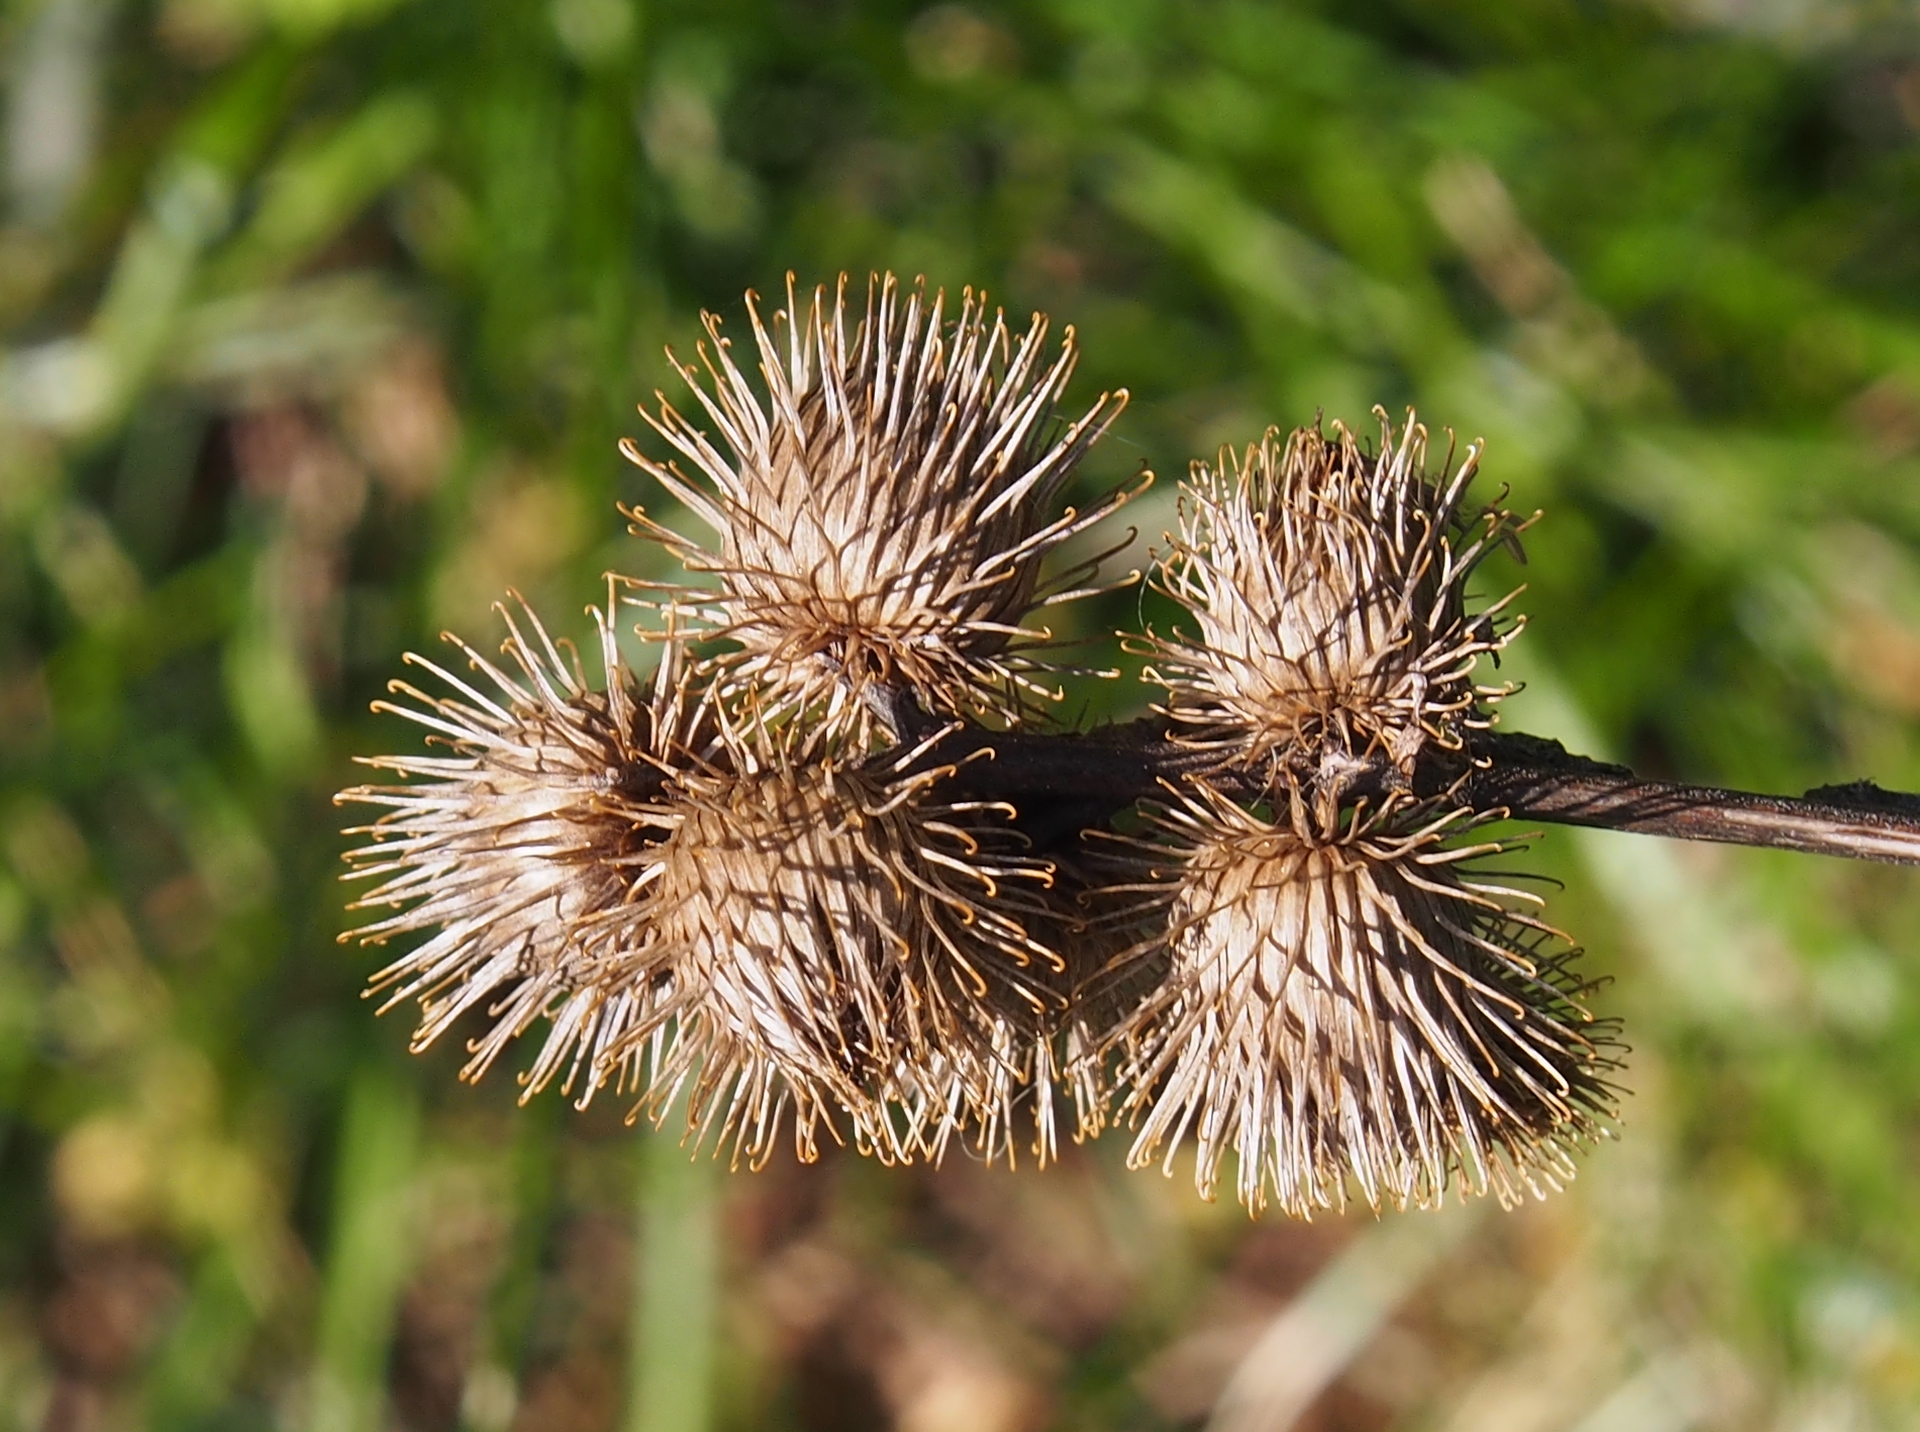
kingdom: Plantae
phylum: Tracheophyta
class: Magnoliopsida
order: Asterales
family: Asteraceae
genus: Arctium
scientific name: Arctium minus
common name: Lesser burdock
